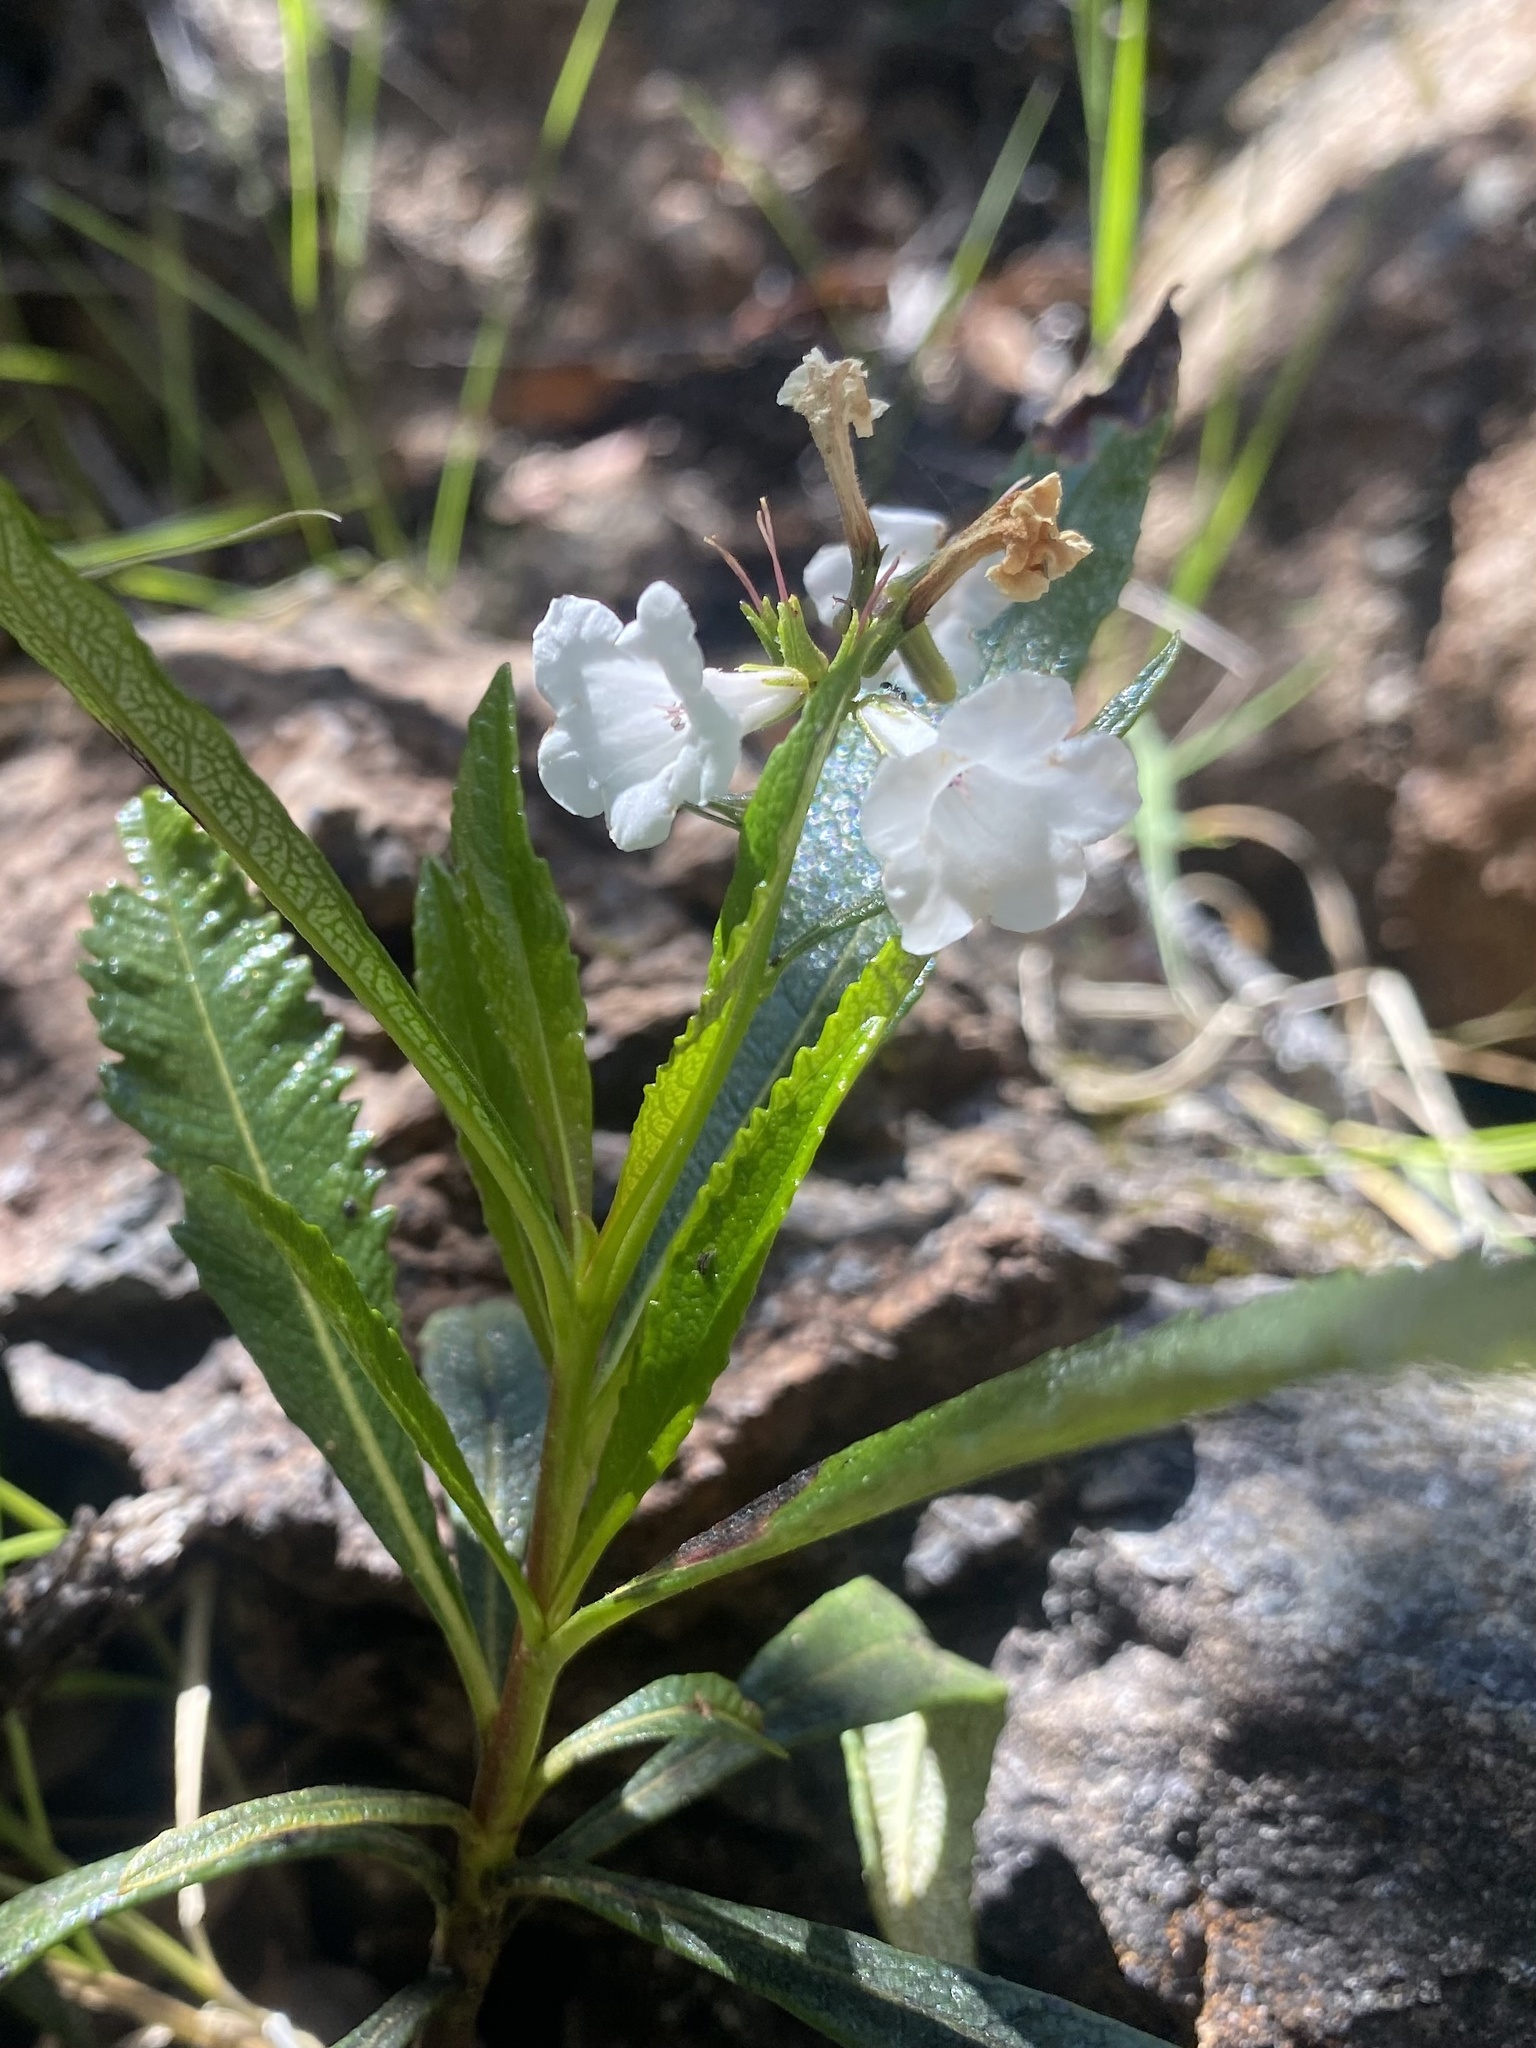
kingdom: Plantae
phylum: Tracheophyta
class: Magnoliopsida
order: Boraginales
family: Namaceae
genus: Eriodictyon
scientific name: Eriodictyon californicum
